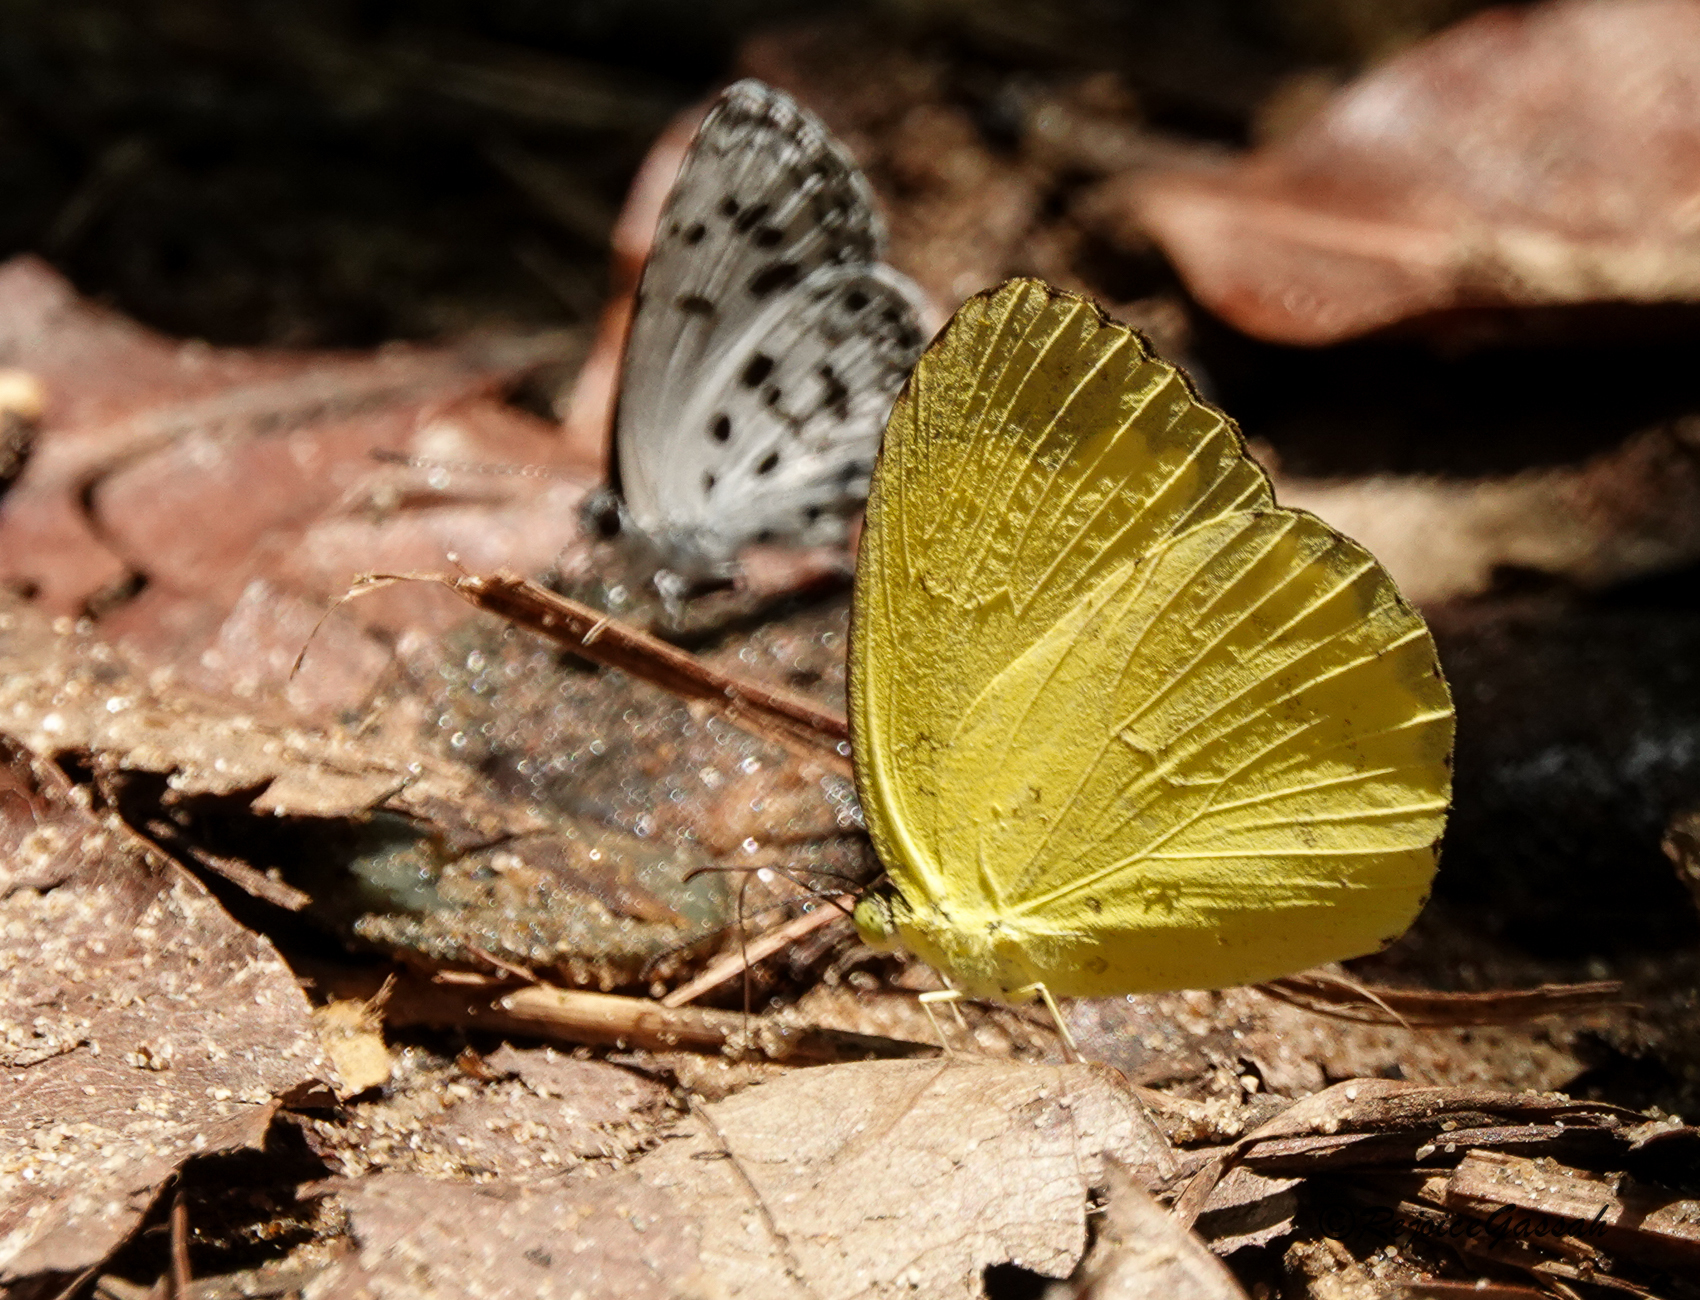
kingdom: Animalia
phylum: Arthropoda
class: Insecta
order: Lepidoptera
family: Pieridae
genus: Eurema
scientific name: Eurema hecabe
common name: Pale grass yellow
